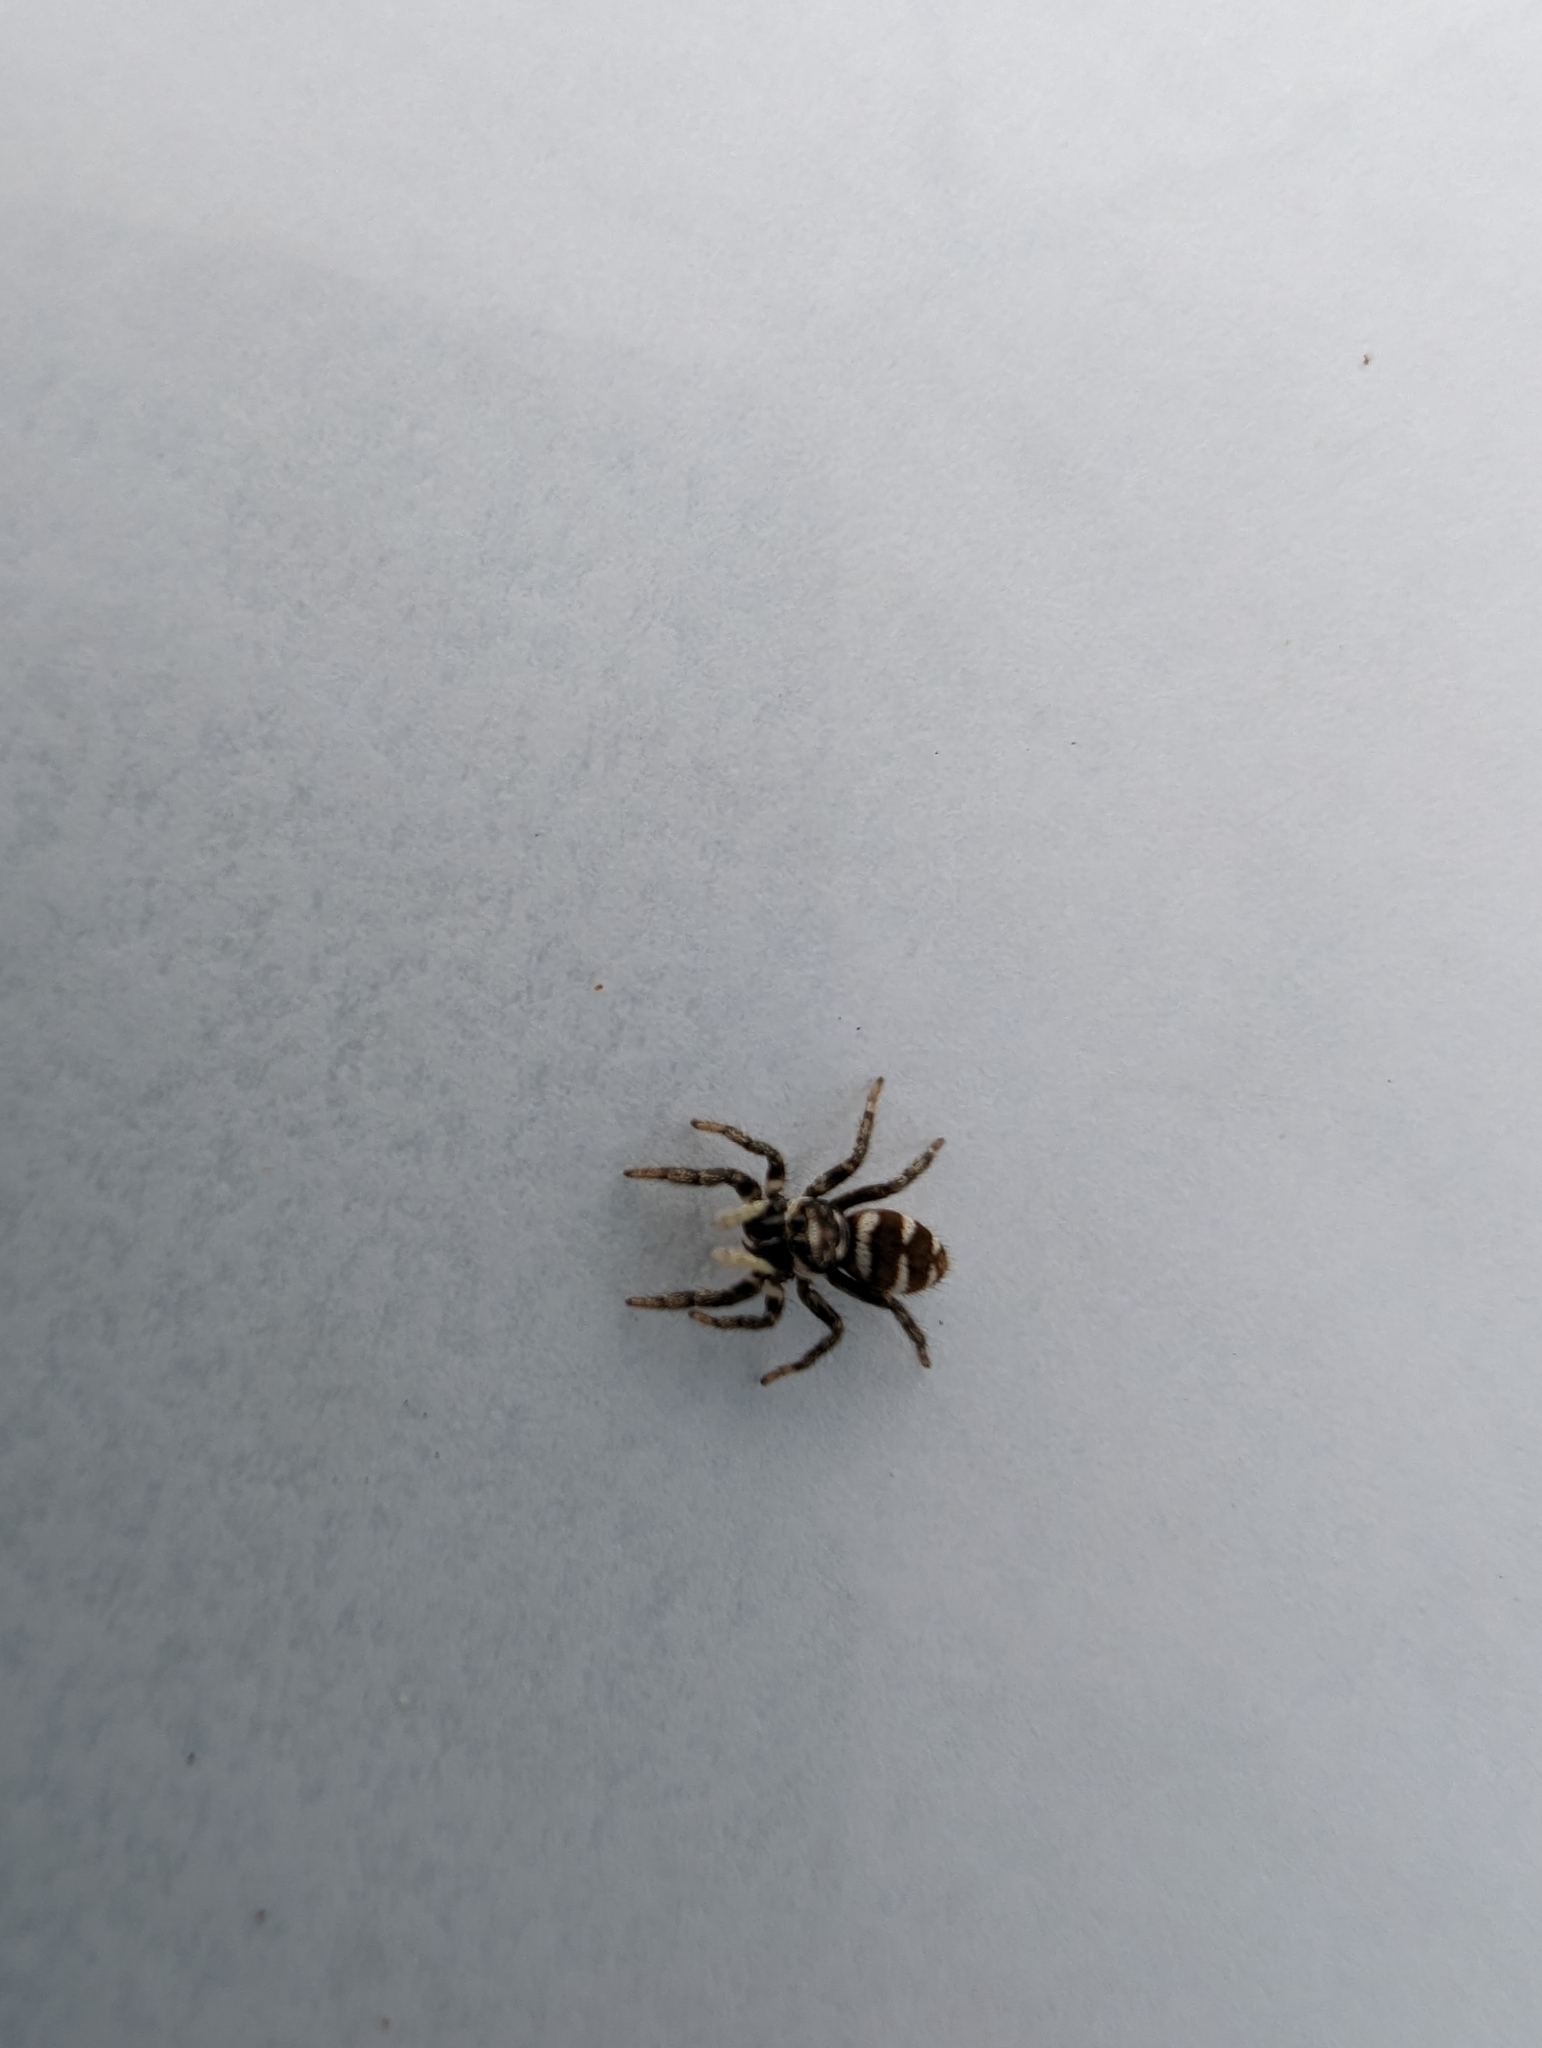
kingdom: Animalia
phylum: Arthropoda
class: Arachnida
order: Araneae
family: Salticidae
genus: Salticus
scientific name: Salticus scenicus
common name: Zebra jumper
